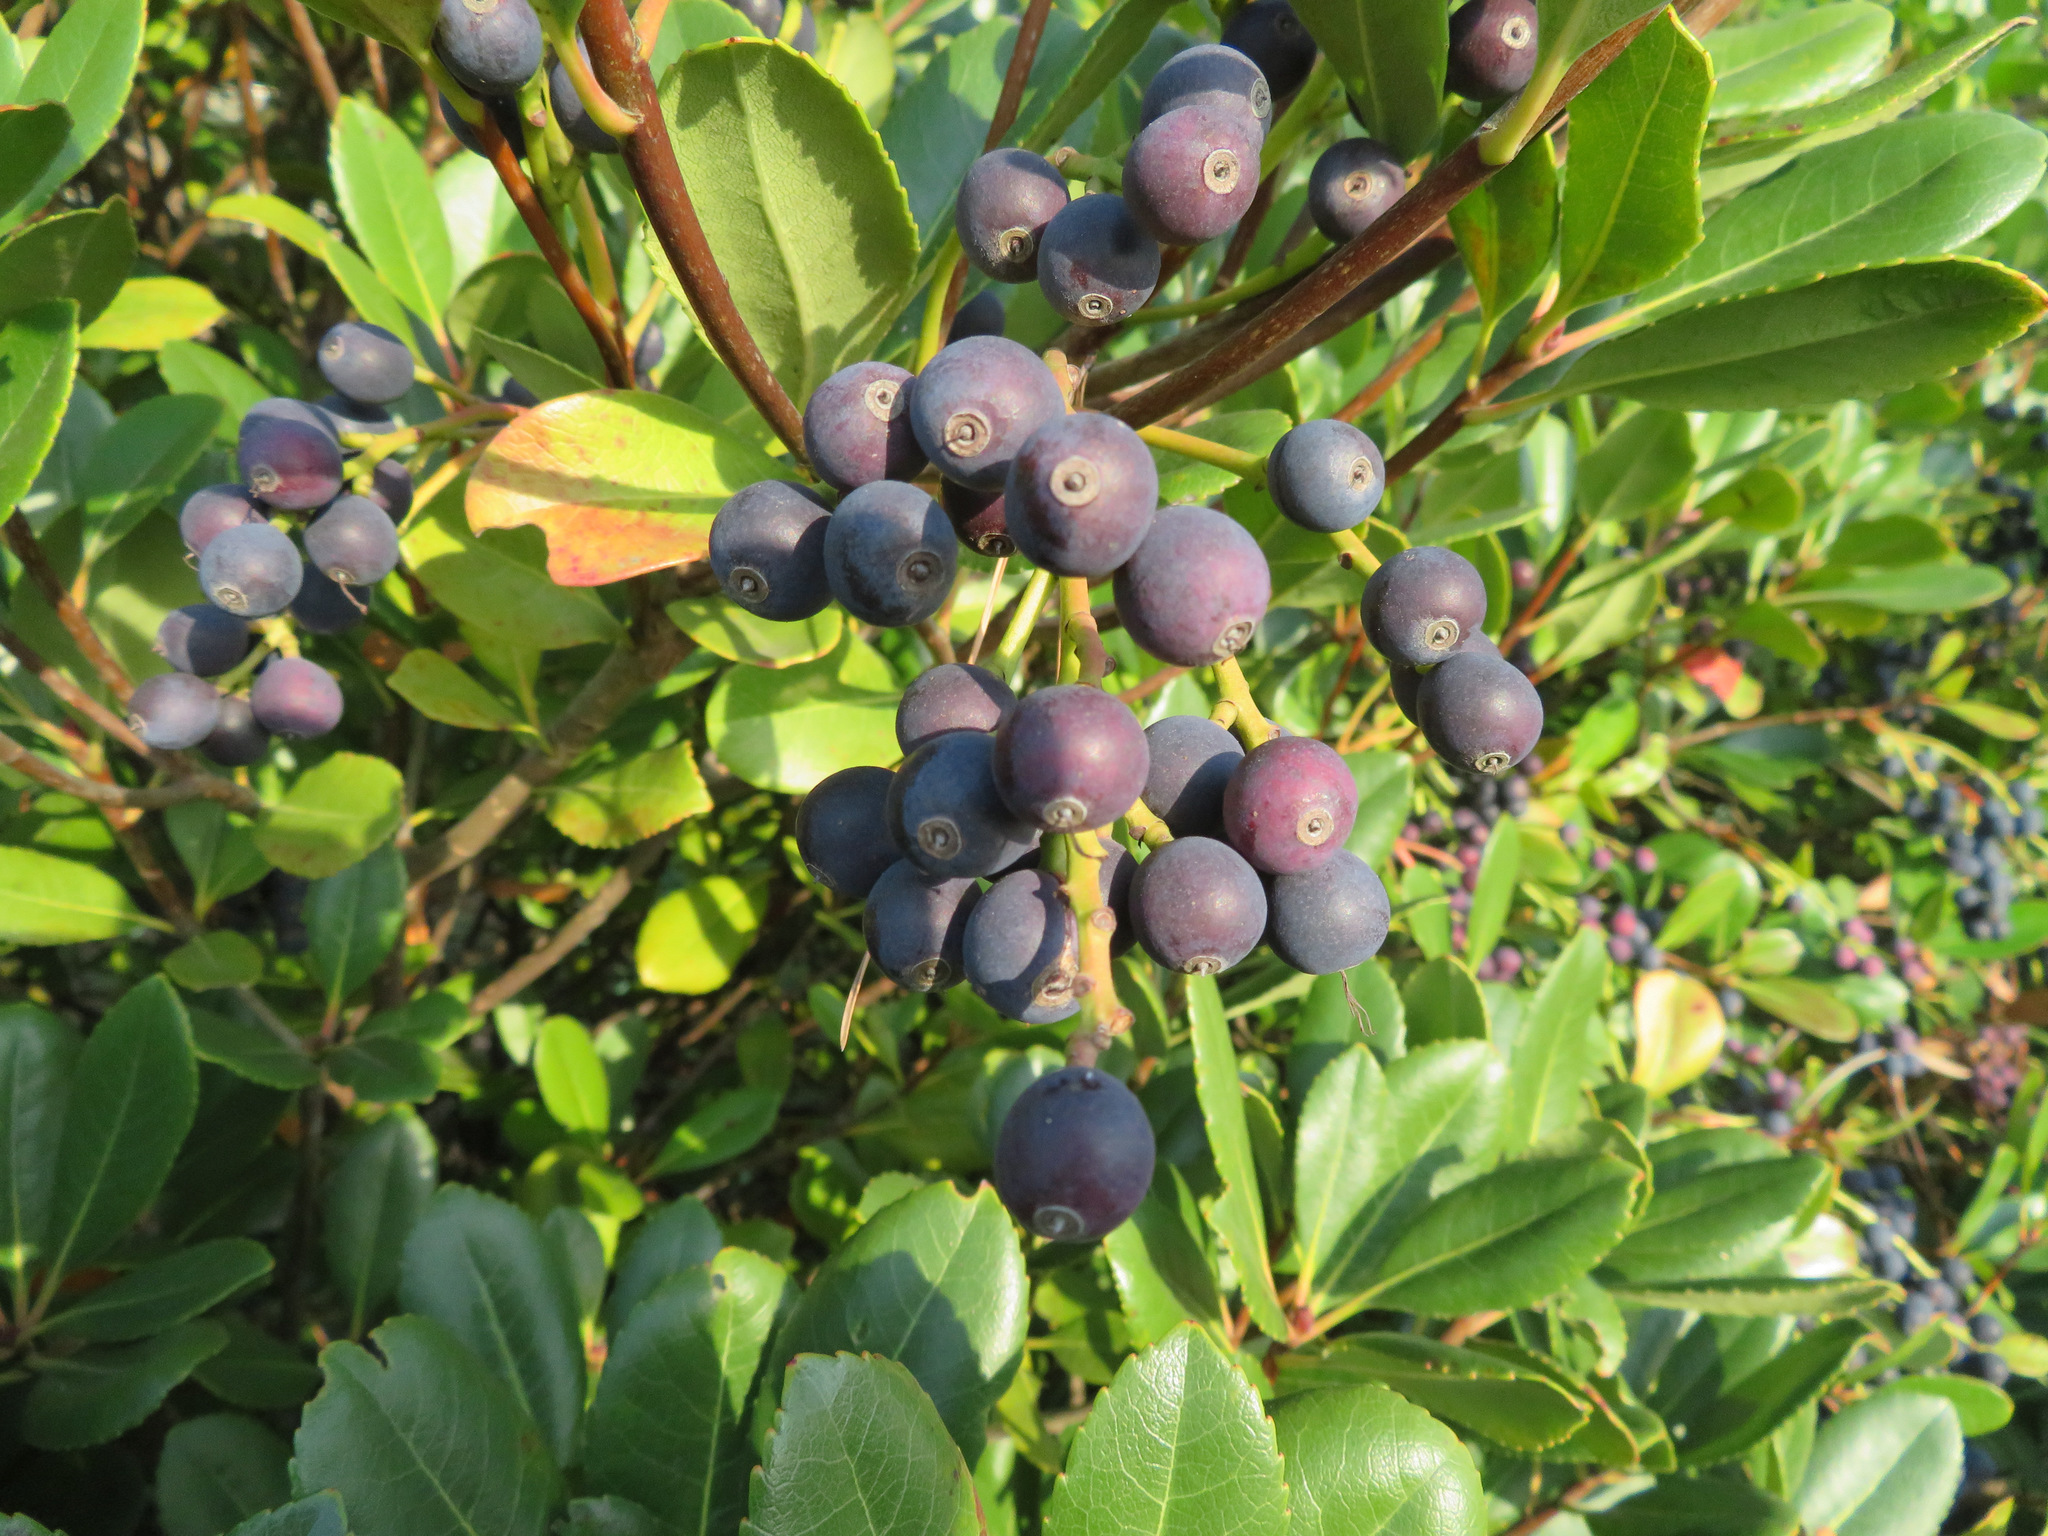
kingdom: Plantae
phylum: Tracheophyta
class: Magnoliopsida
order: Rosales
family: Rosaceae
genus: Rhaphiolepis
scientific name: Rhaphiolepis indica
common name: India-hawthorn
